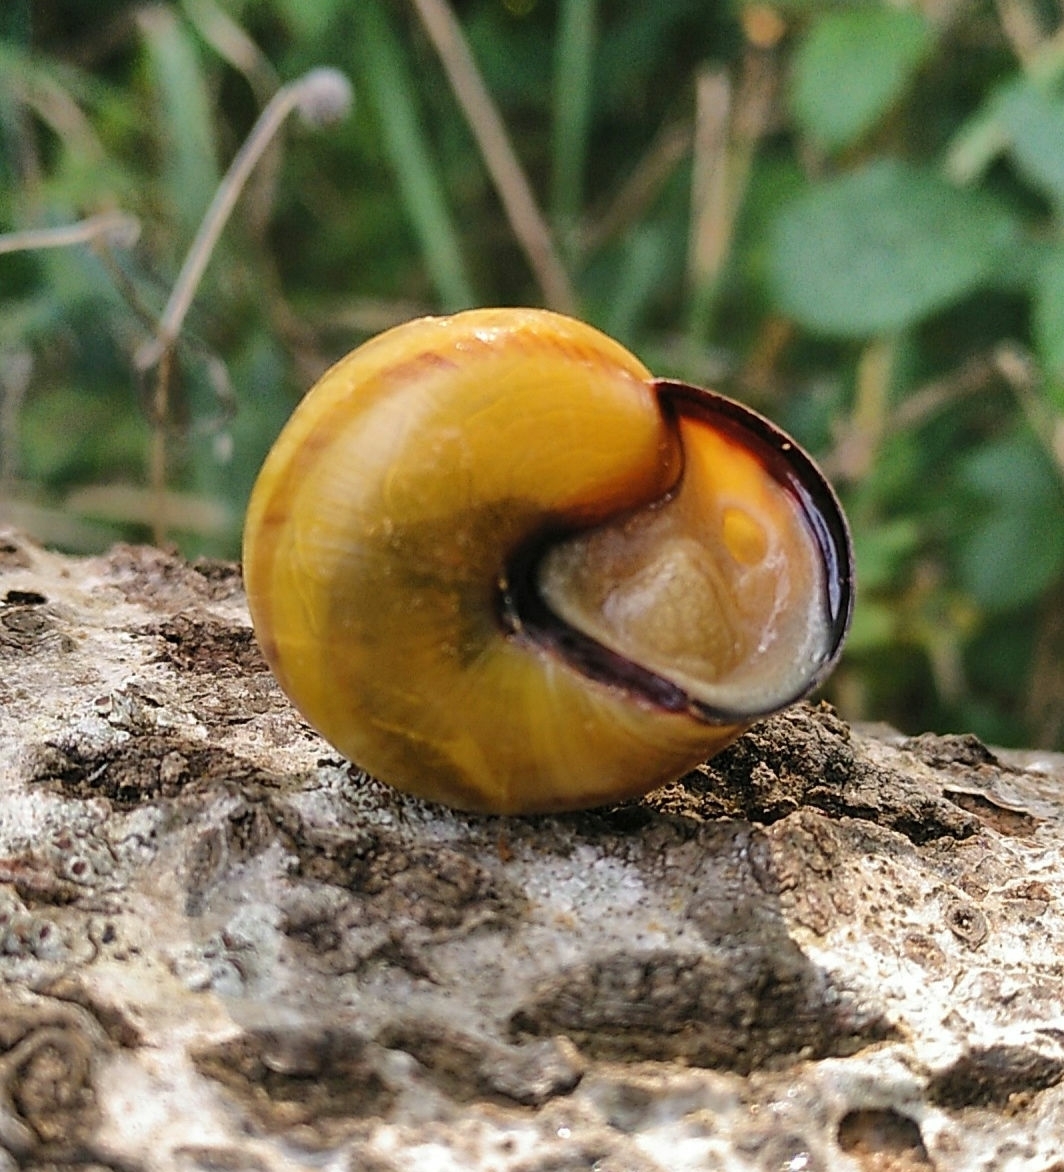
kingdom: Animalia
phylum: Mollusca
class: Gastropoda
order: Stylommatophora
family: Helicidae
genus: Cepaea
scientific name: Cepaea nemoralis
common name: Grovesnail
